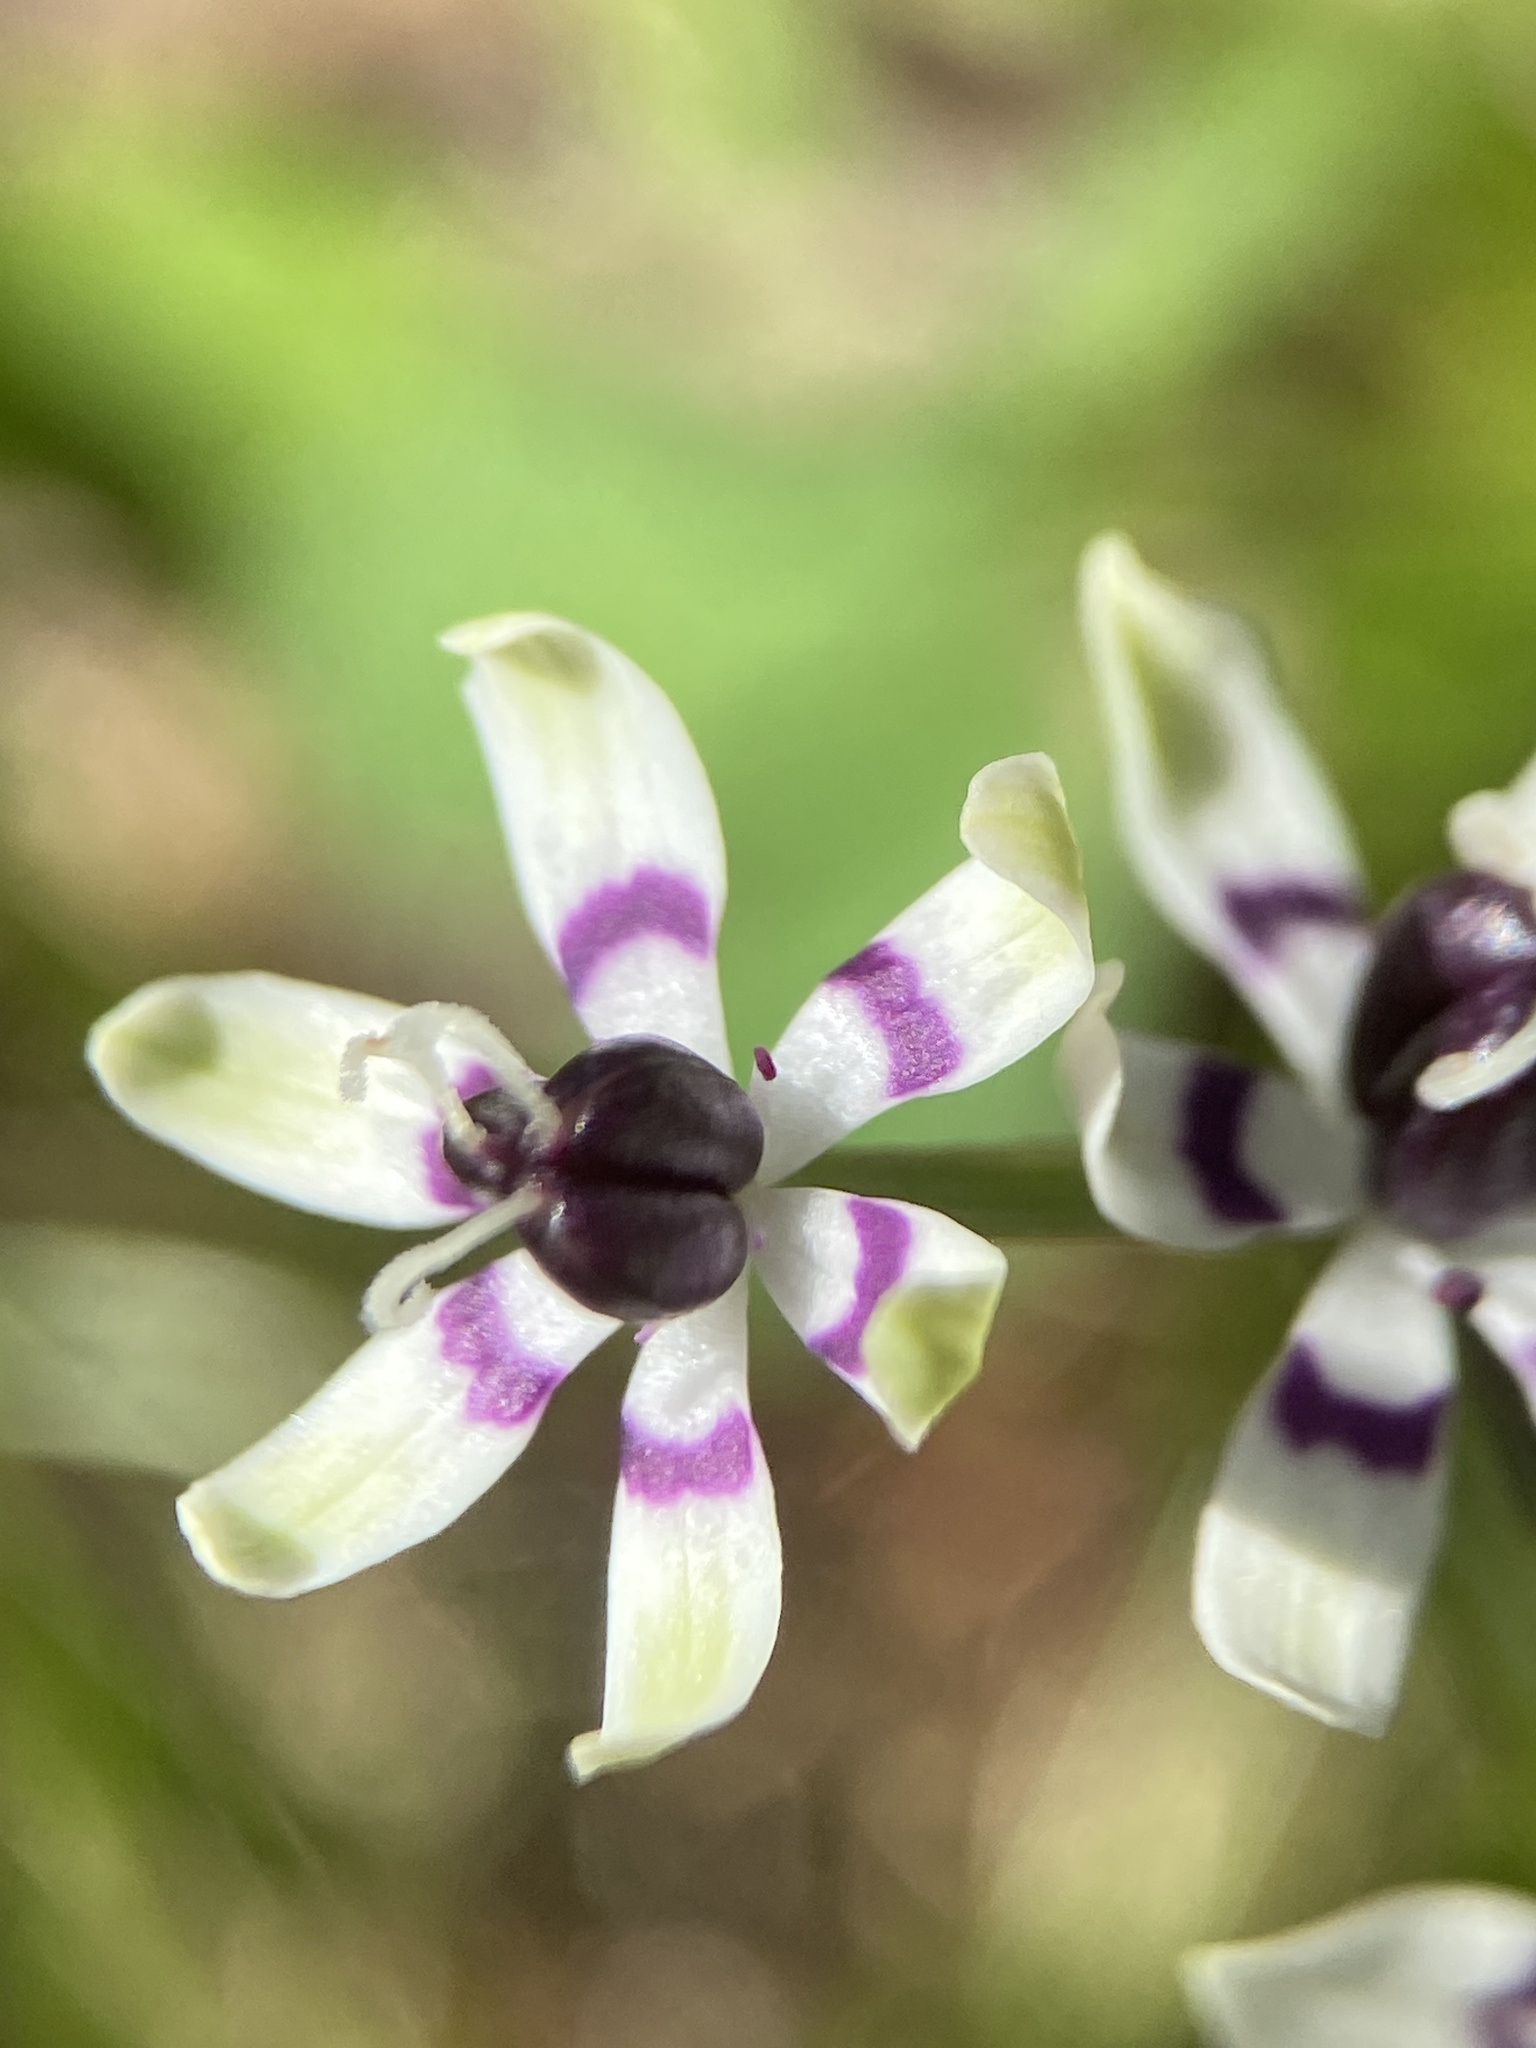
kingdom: Plantae
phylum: Tracheophyta
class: Liliopsida
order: Liliales
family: Colchicaceae
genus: Wurmbea
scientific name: Wurmbea dioica
